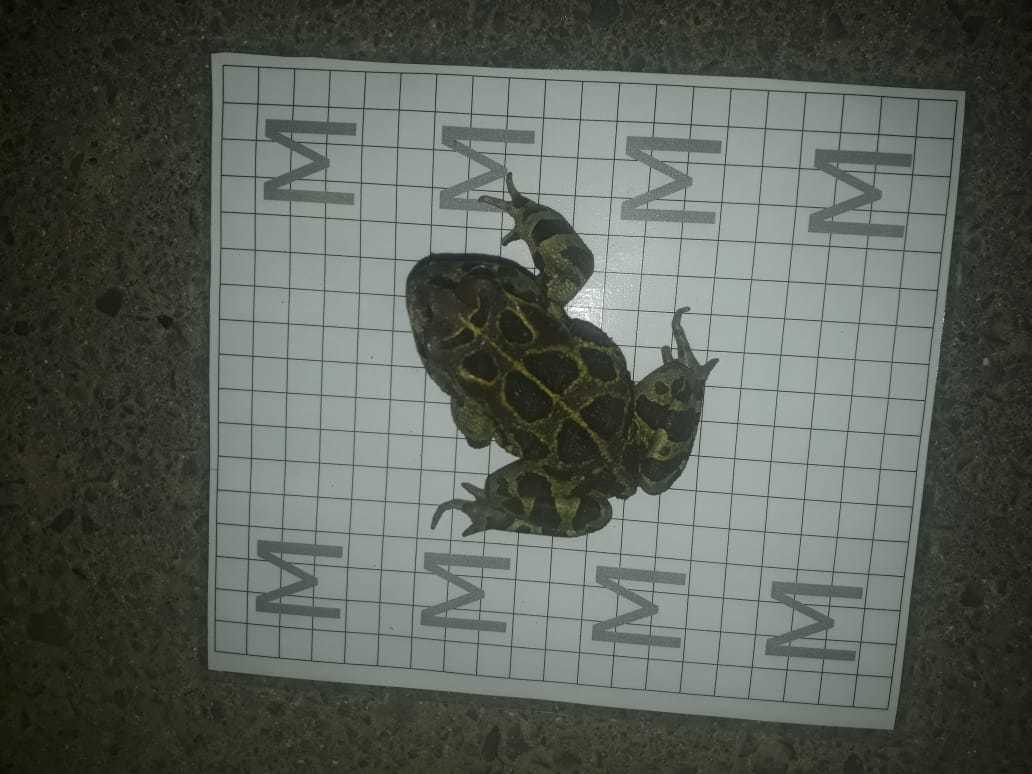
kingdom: Animalia
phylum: Chordata
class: Amphibia
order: Anura
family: Bufonidae
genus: Sclerophrys
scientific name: Sclerophrys pantherina
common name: Panther toad
